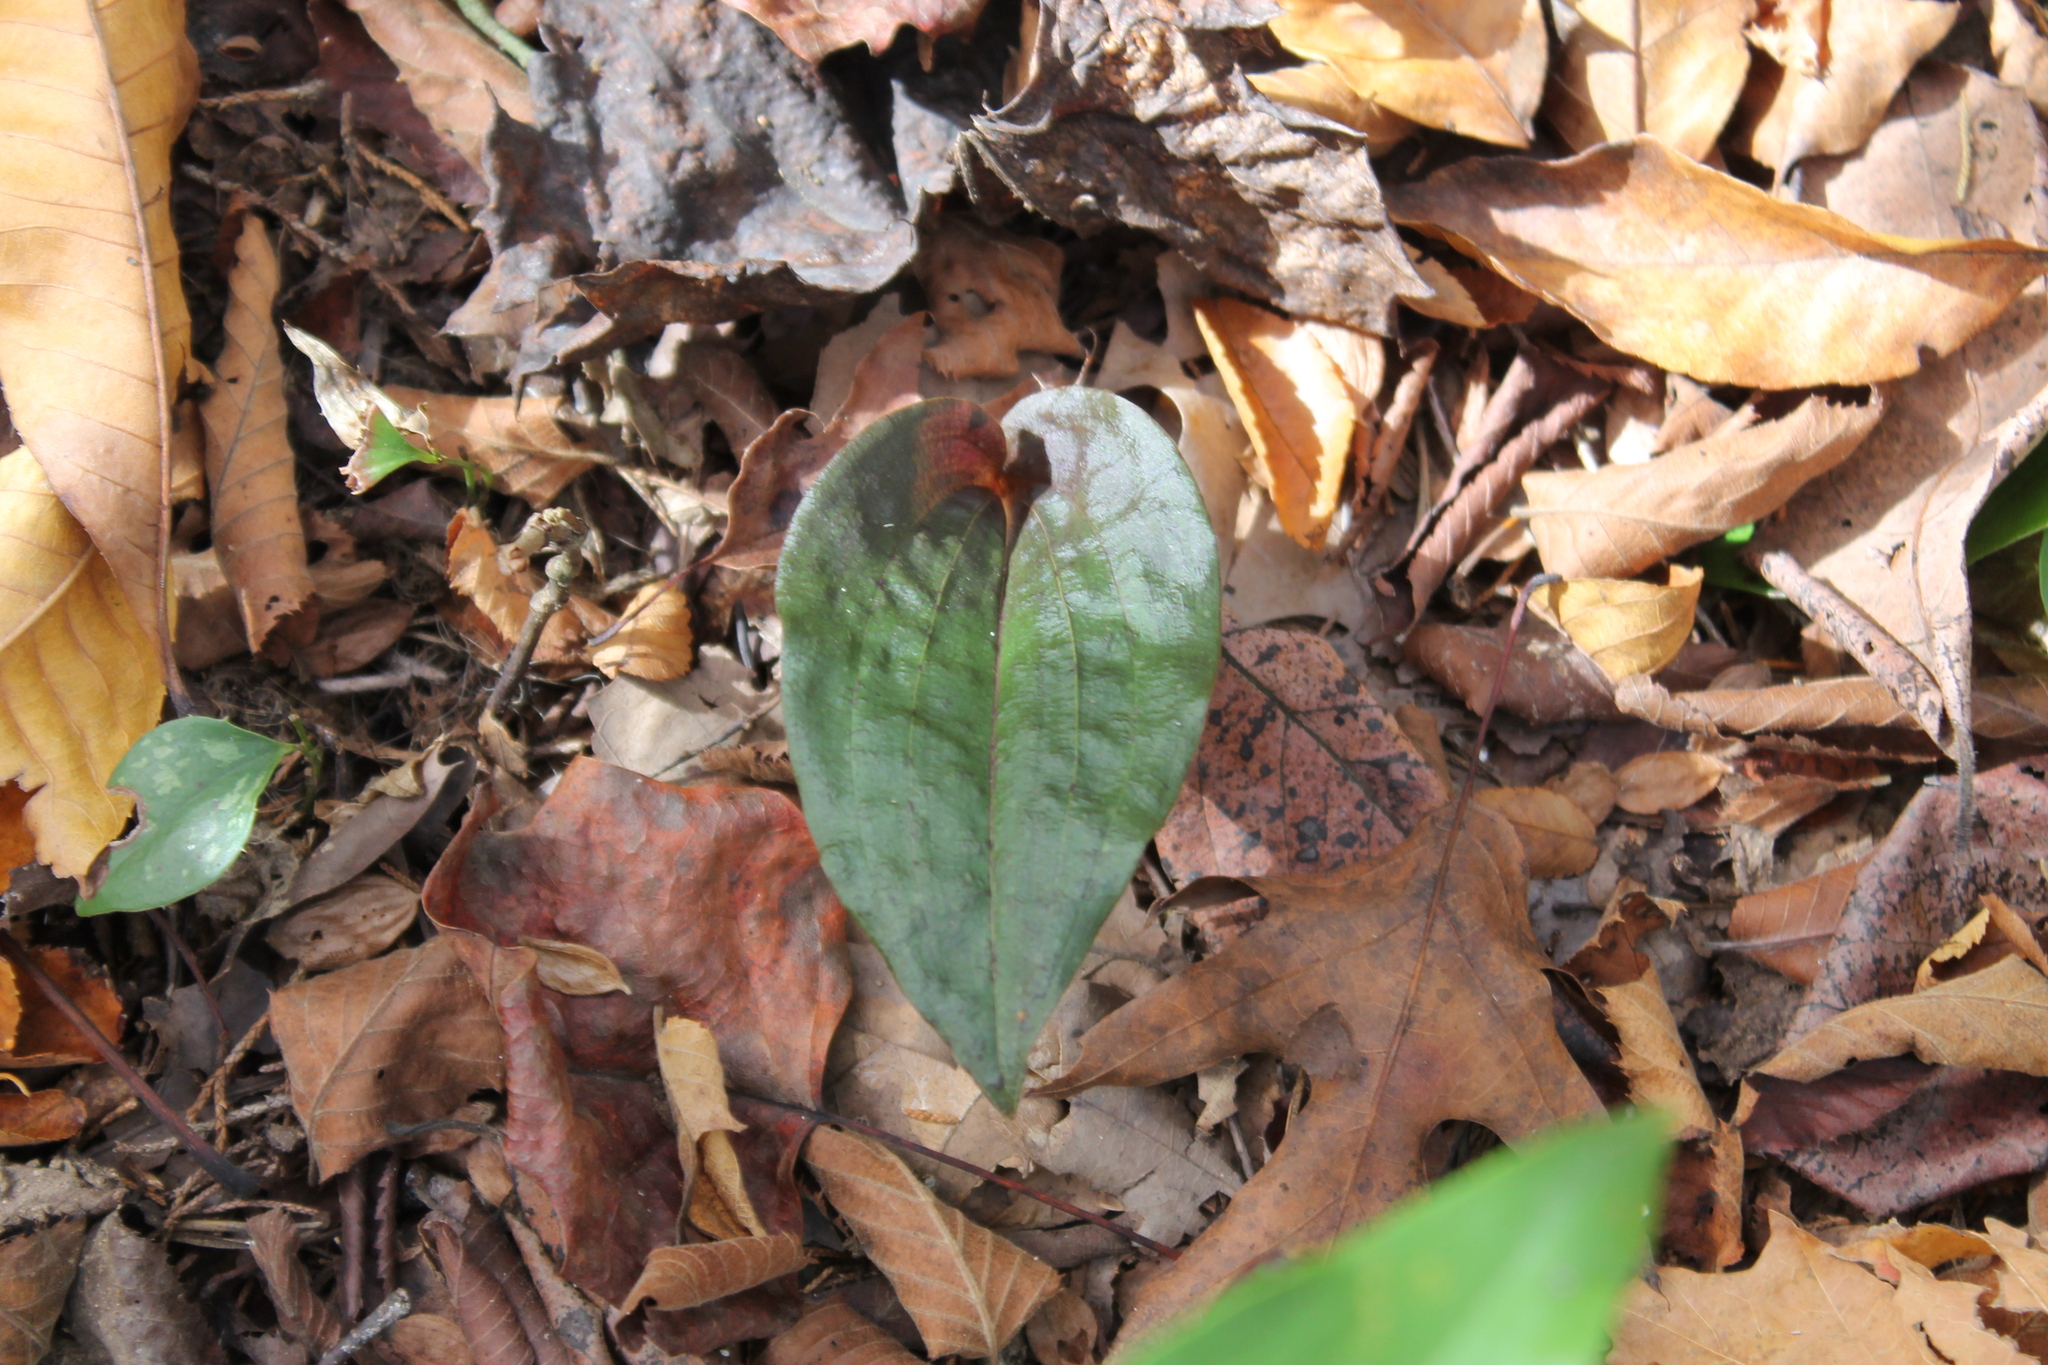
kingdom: Plantae
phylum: Tracheophyta
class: Liliopsida
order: Asparagales
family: Orchidaceae
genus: Tipularia
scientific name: Tipularia discolor
